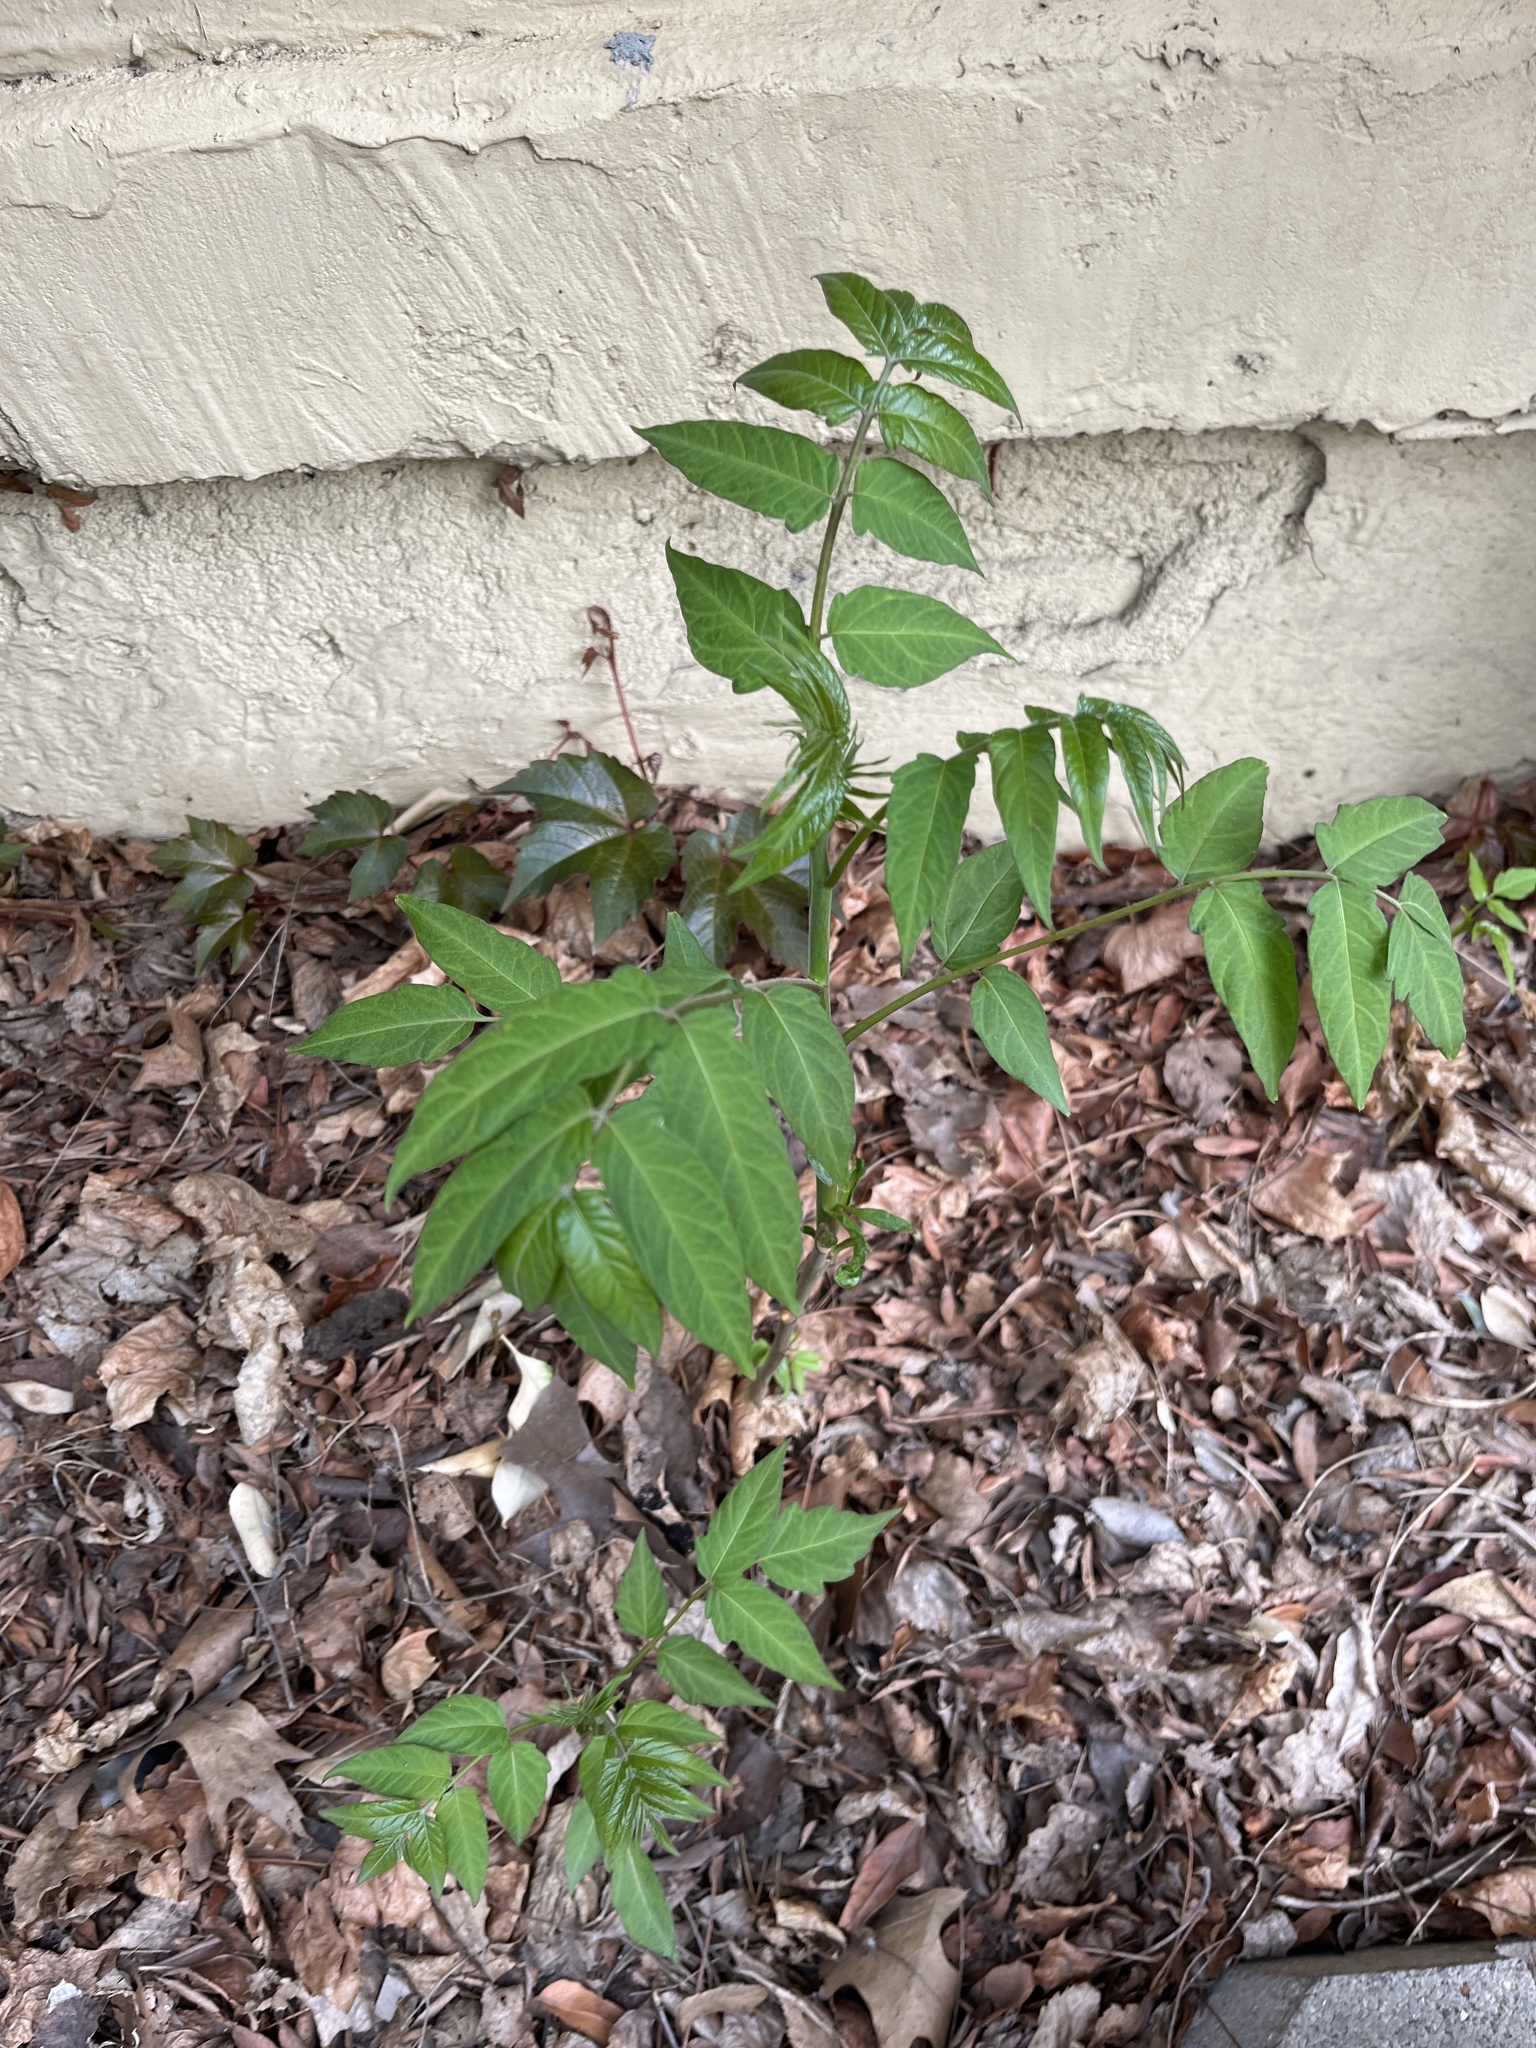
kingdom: Plantae
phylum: Tracheophyta
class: Magnoliopsida
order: Sapindales
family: Simaroubaceae
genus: Ailanthus
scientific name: Ailanthus altissima
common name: Tree-of-heaven
